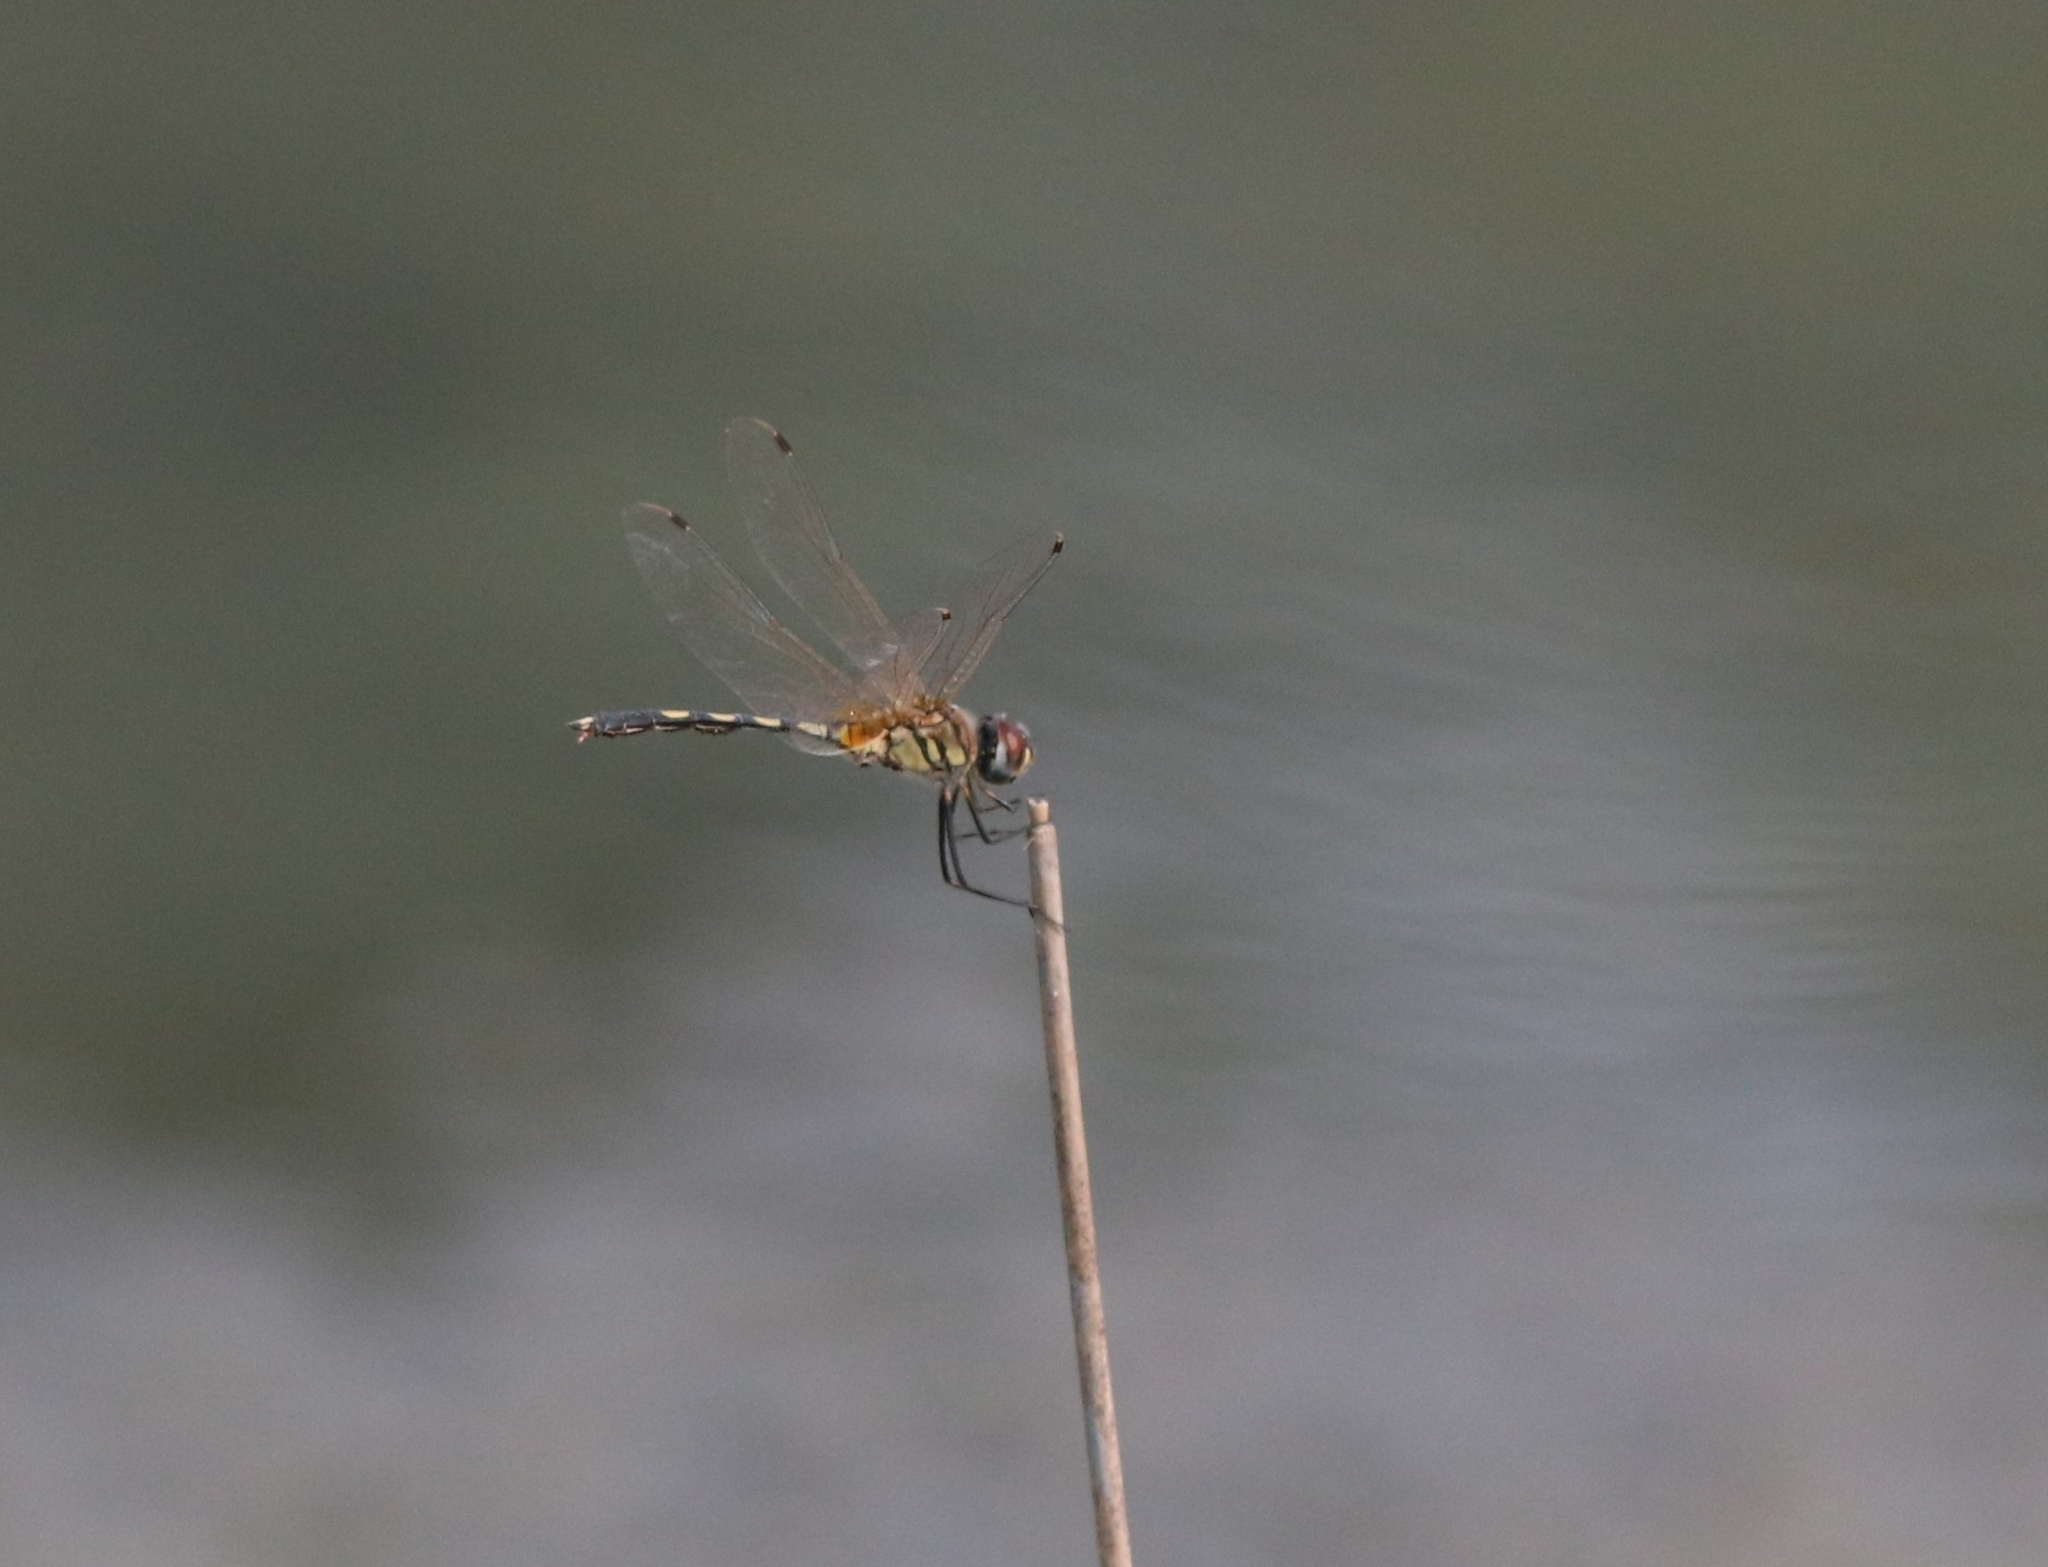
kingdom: Animalia
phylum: Arthropoda
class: Insecta
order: Odonata
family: Libellulidae
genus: Trithemis
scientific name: Trithemis pallidinervis
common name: Dancing dropwing
